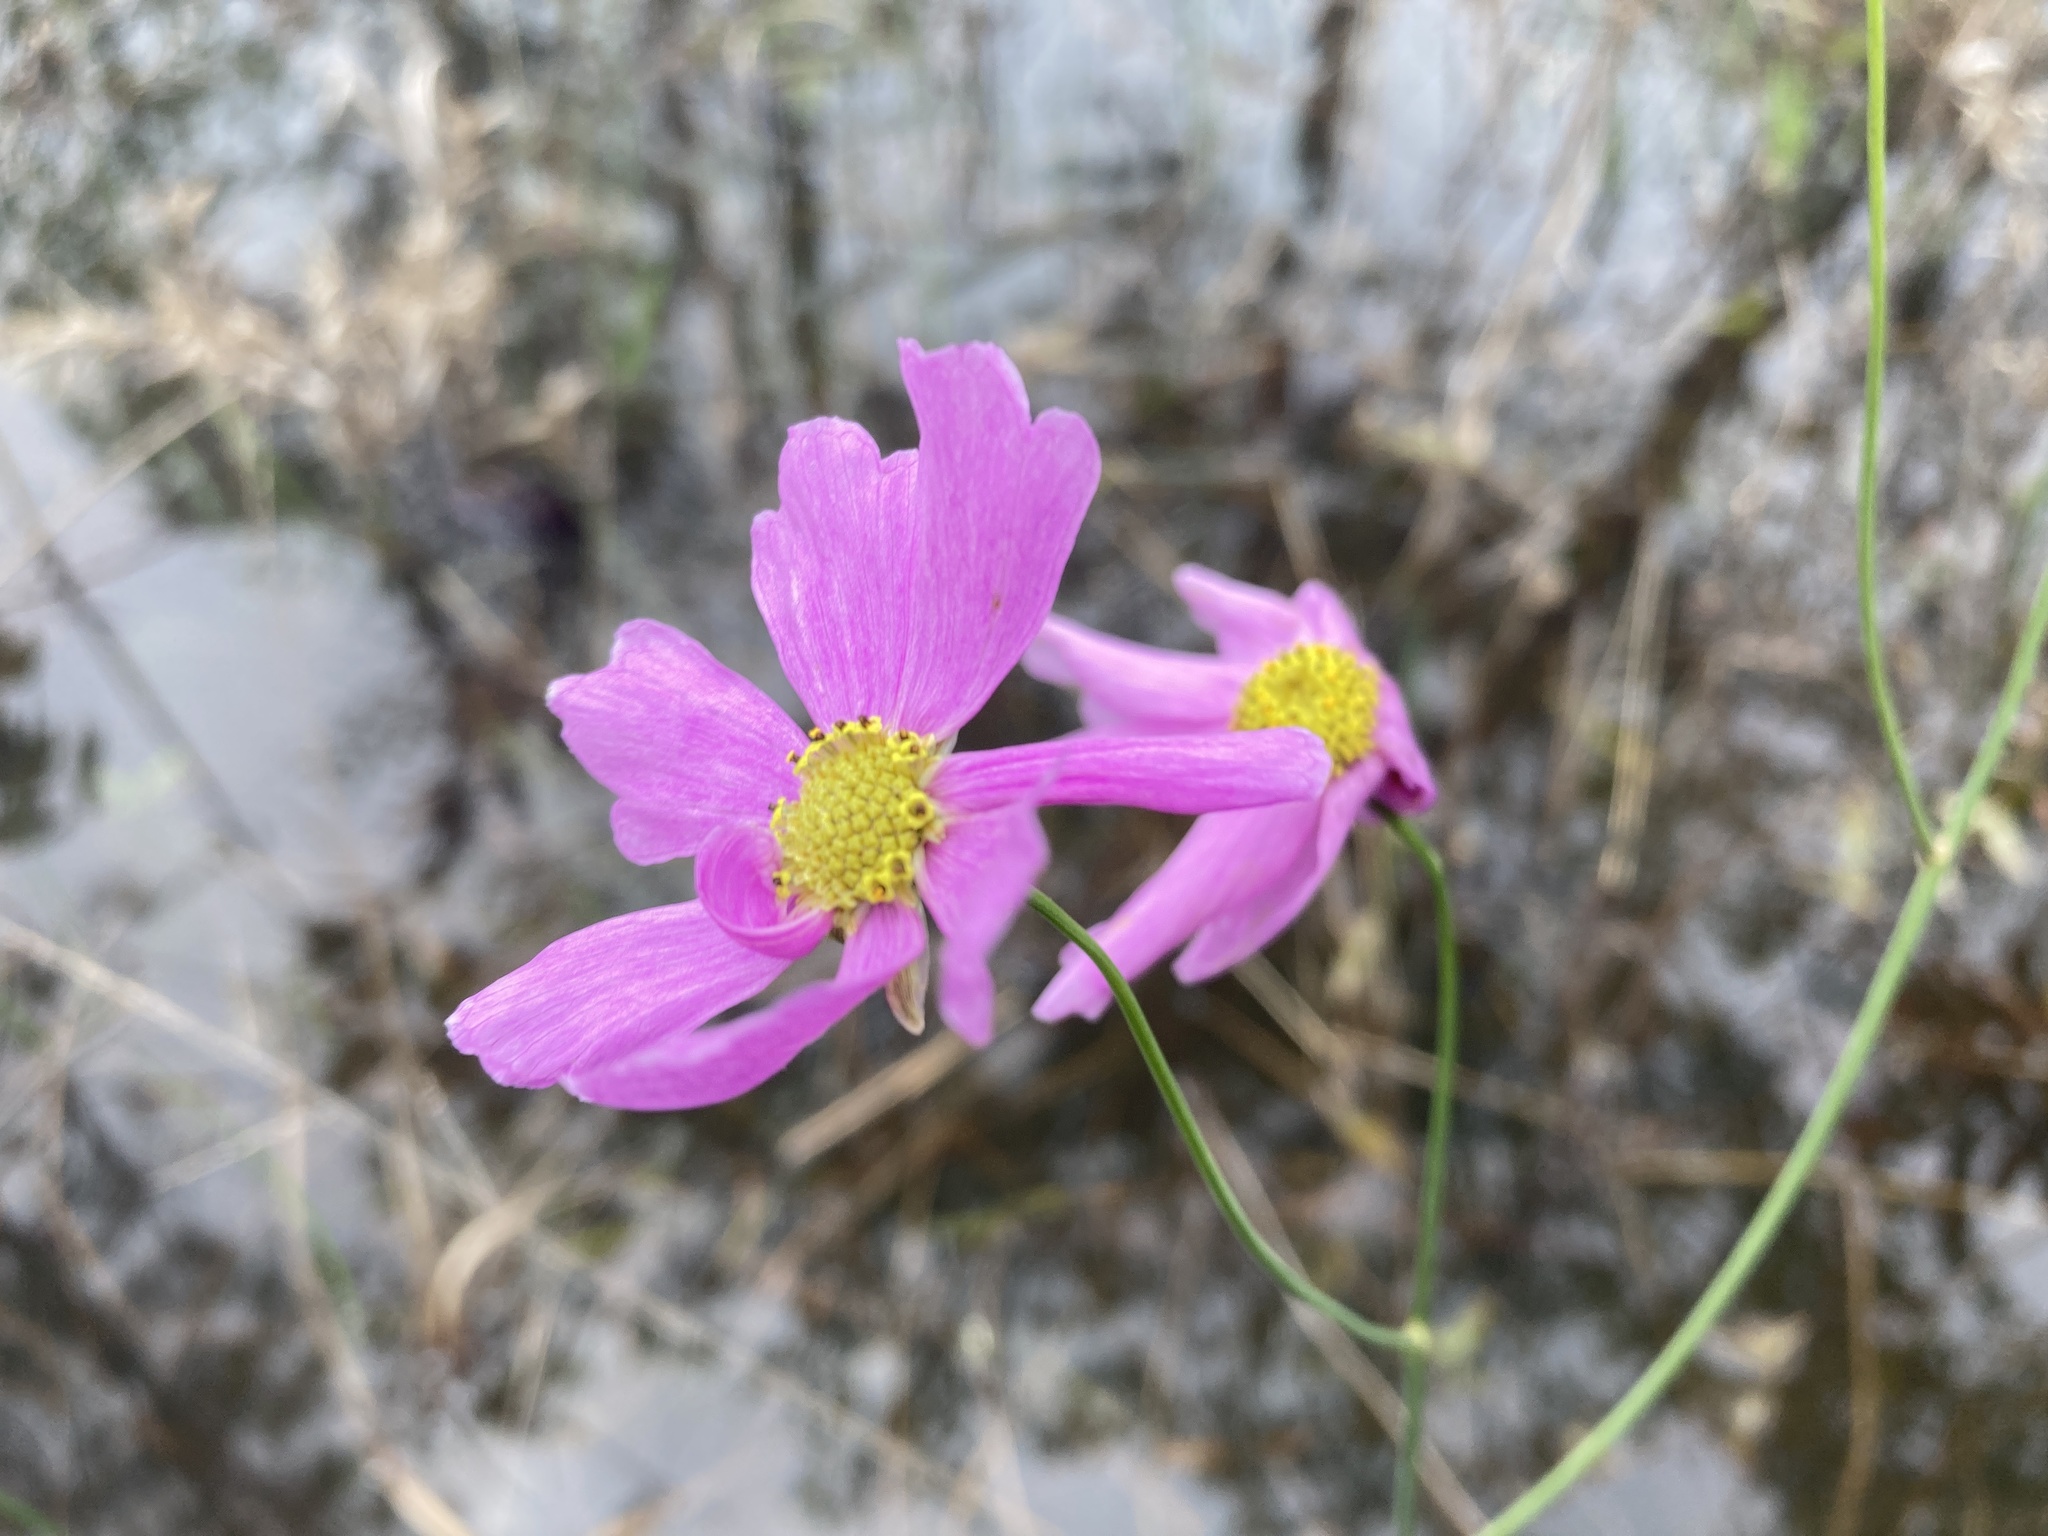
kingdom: Plantae
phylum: Tracheophyta
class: Magnoliopsida
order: Asterales
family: Asteraceae
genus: Coreopsis
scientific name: Coreopsis nudata
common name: Purple tickseed
